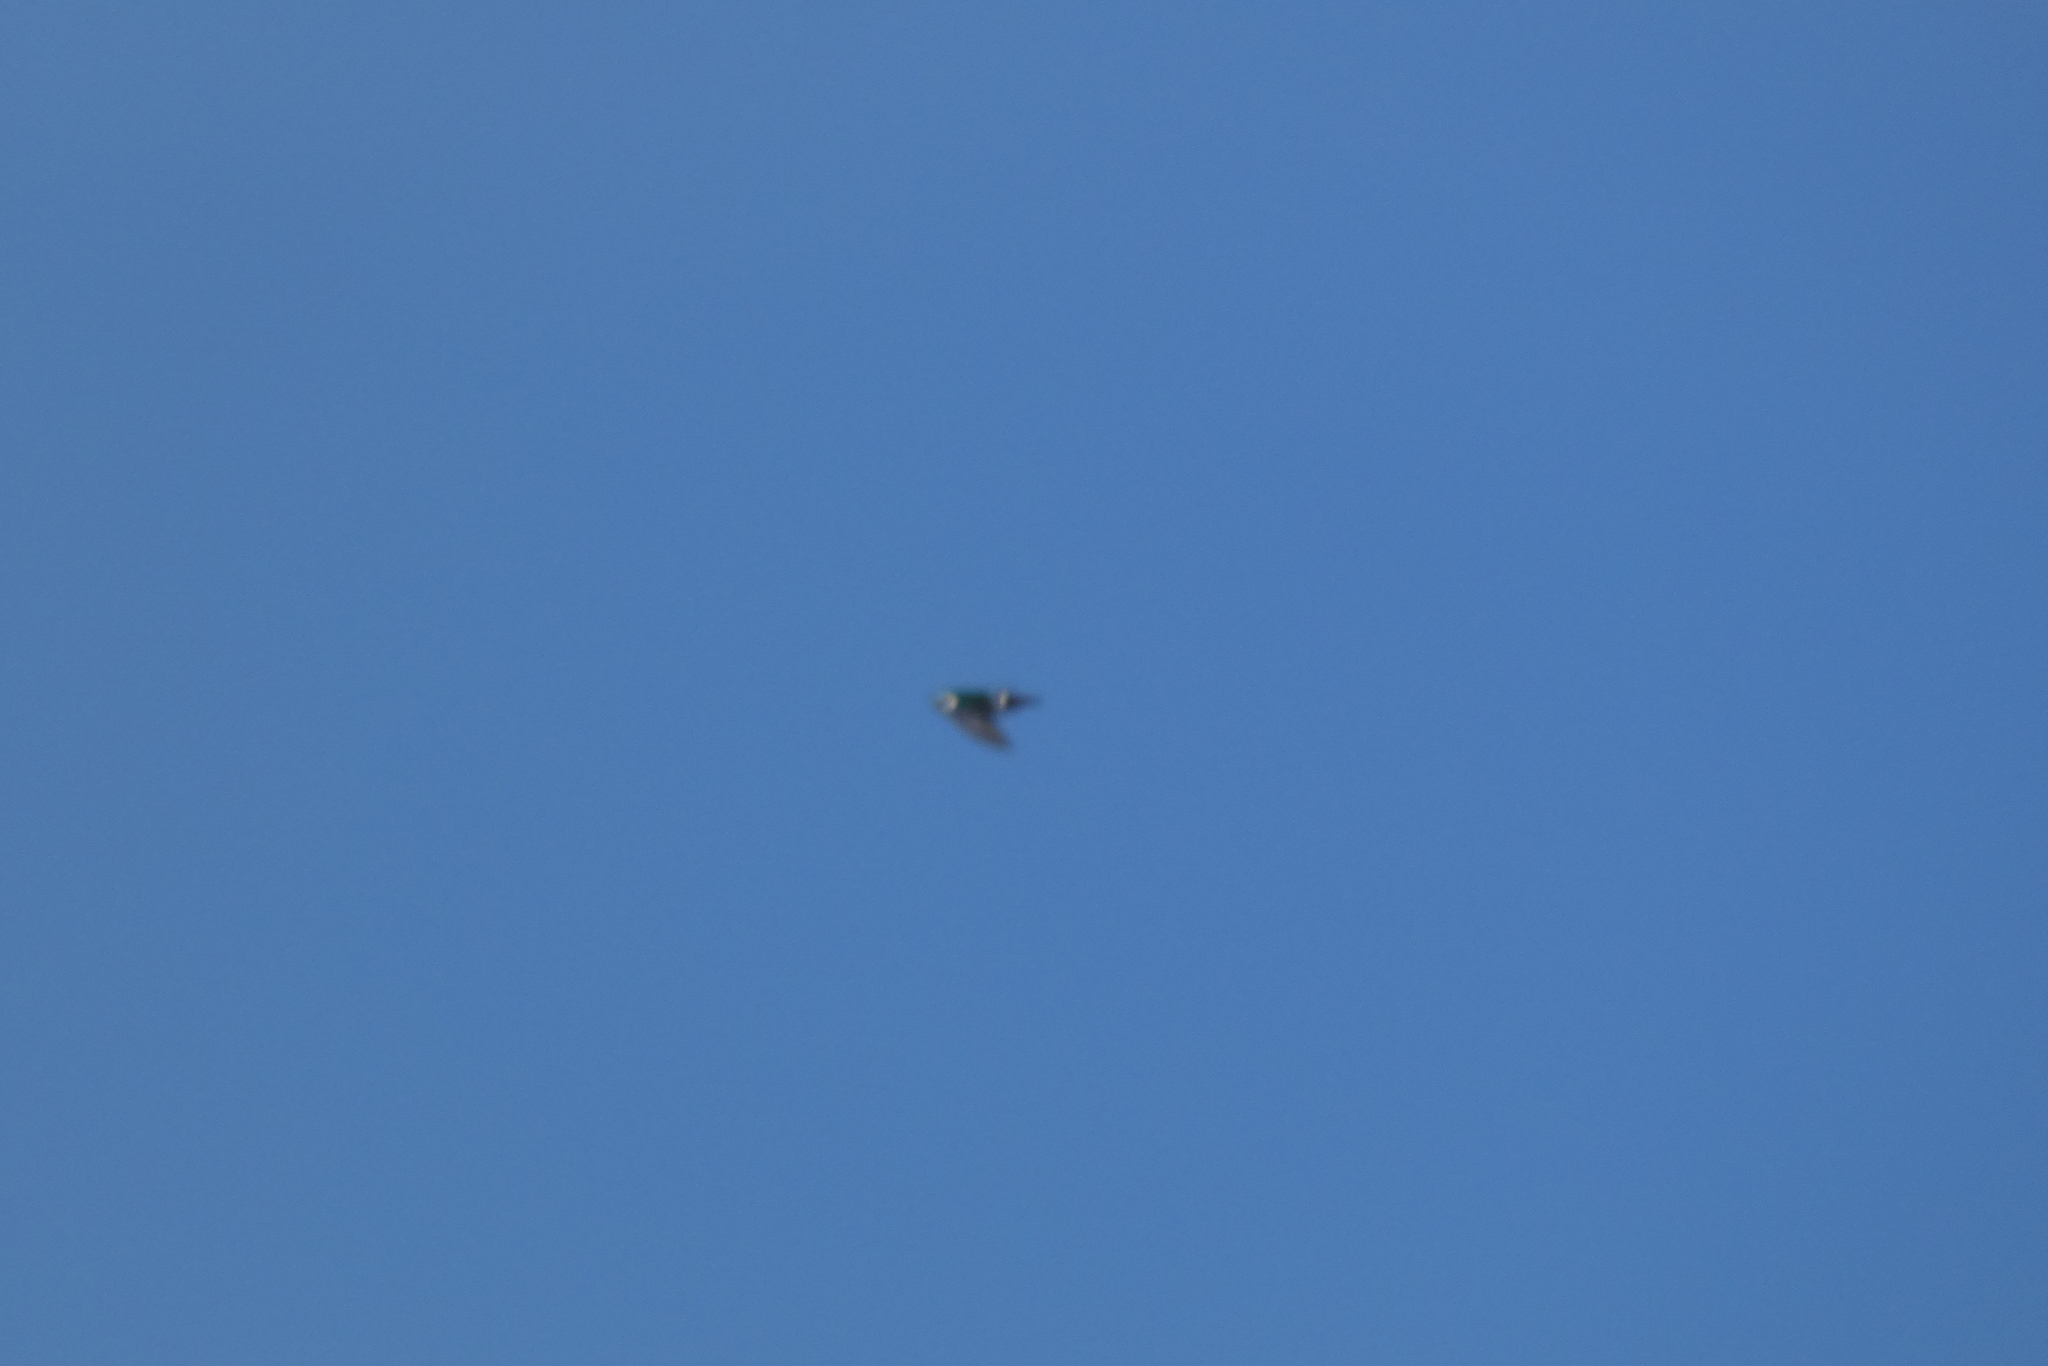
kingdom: Animalia
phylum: Chordata
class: Aves
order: Passeriformes
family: Hirundinidae
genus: Tachycineta
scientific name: Tachycineta thalassina
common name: Violet-green swallow
